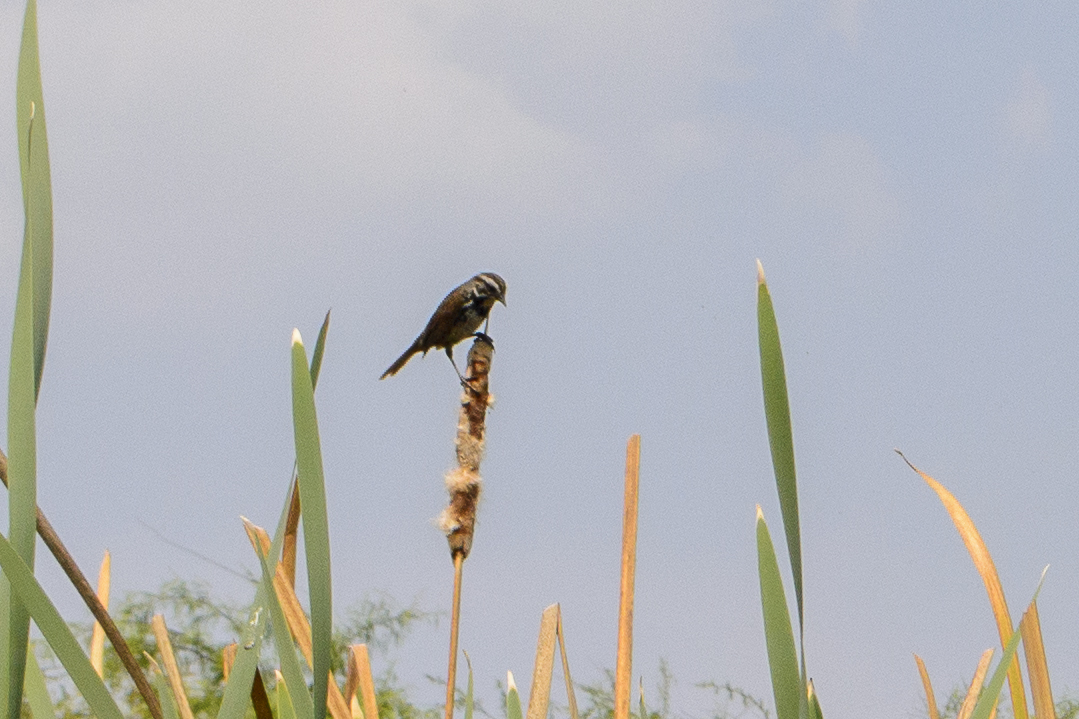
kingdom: Animalia
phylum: Chordata
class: Aves
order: Passeriformes
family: Passerellidae
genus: Melospiza
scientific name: Melospiza melodia
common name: Song sparrow
